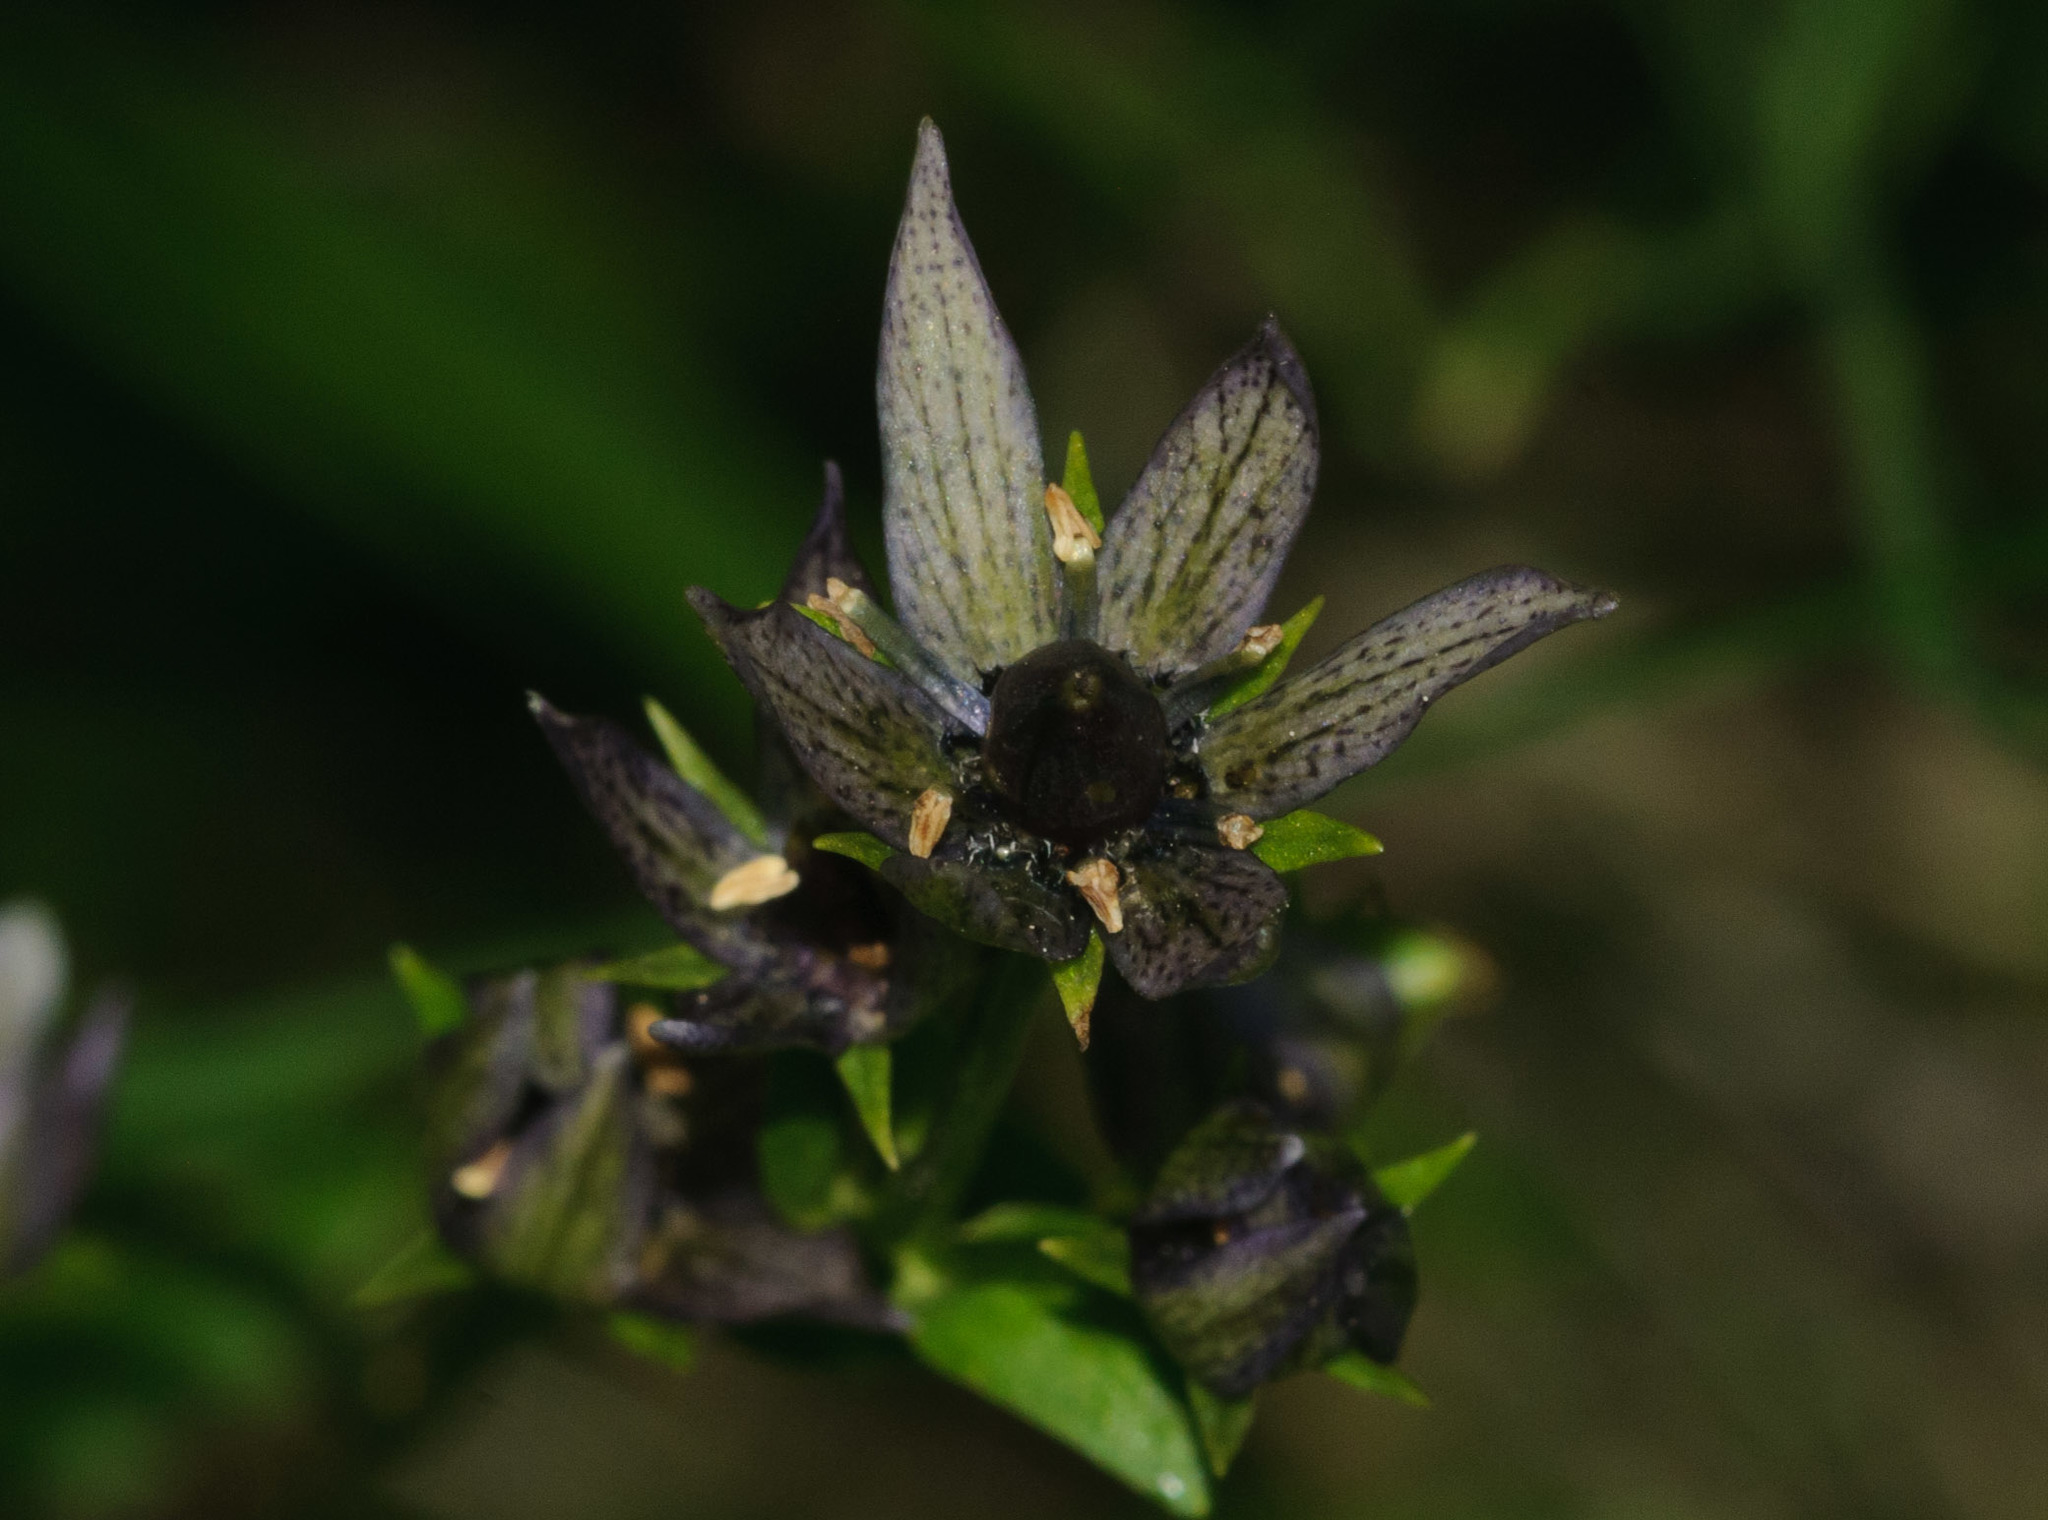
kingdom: Plantae
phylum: Tracheophyta
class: Magnoliopsida
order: Gentianales
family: Gentianaceae
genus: Swertia
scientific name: Swertia perennis
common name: Alpine bog swertia
